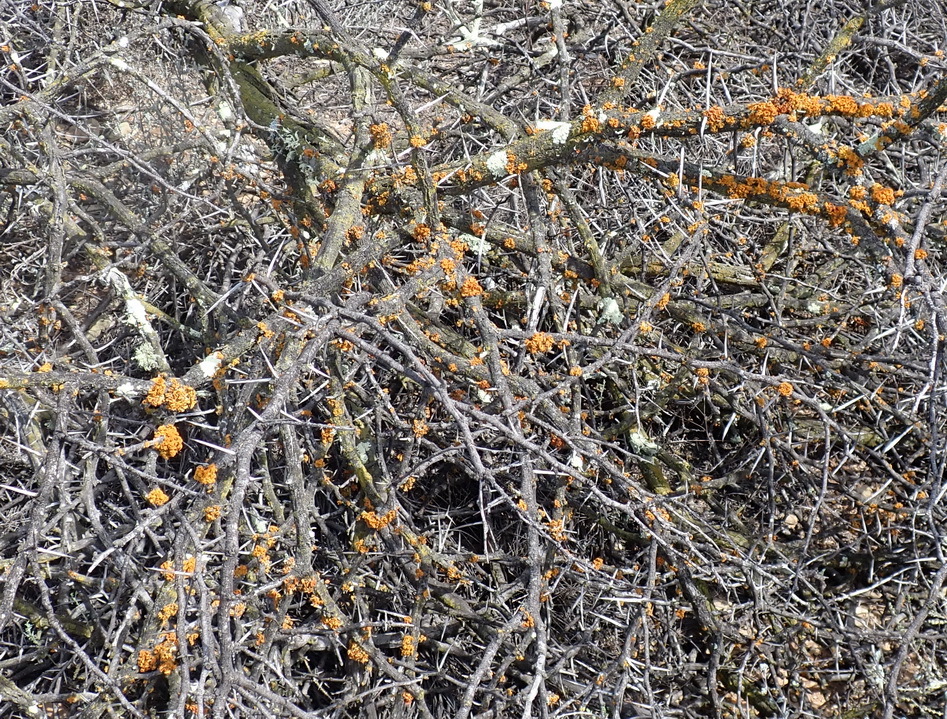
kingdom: Fungi
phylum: Ascomycota
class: Lecanoromycetes
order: Teloschistales
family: Teloschistaceae
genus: Niorma
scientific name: Niorma chrysophthalma
